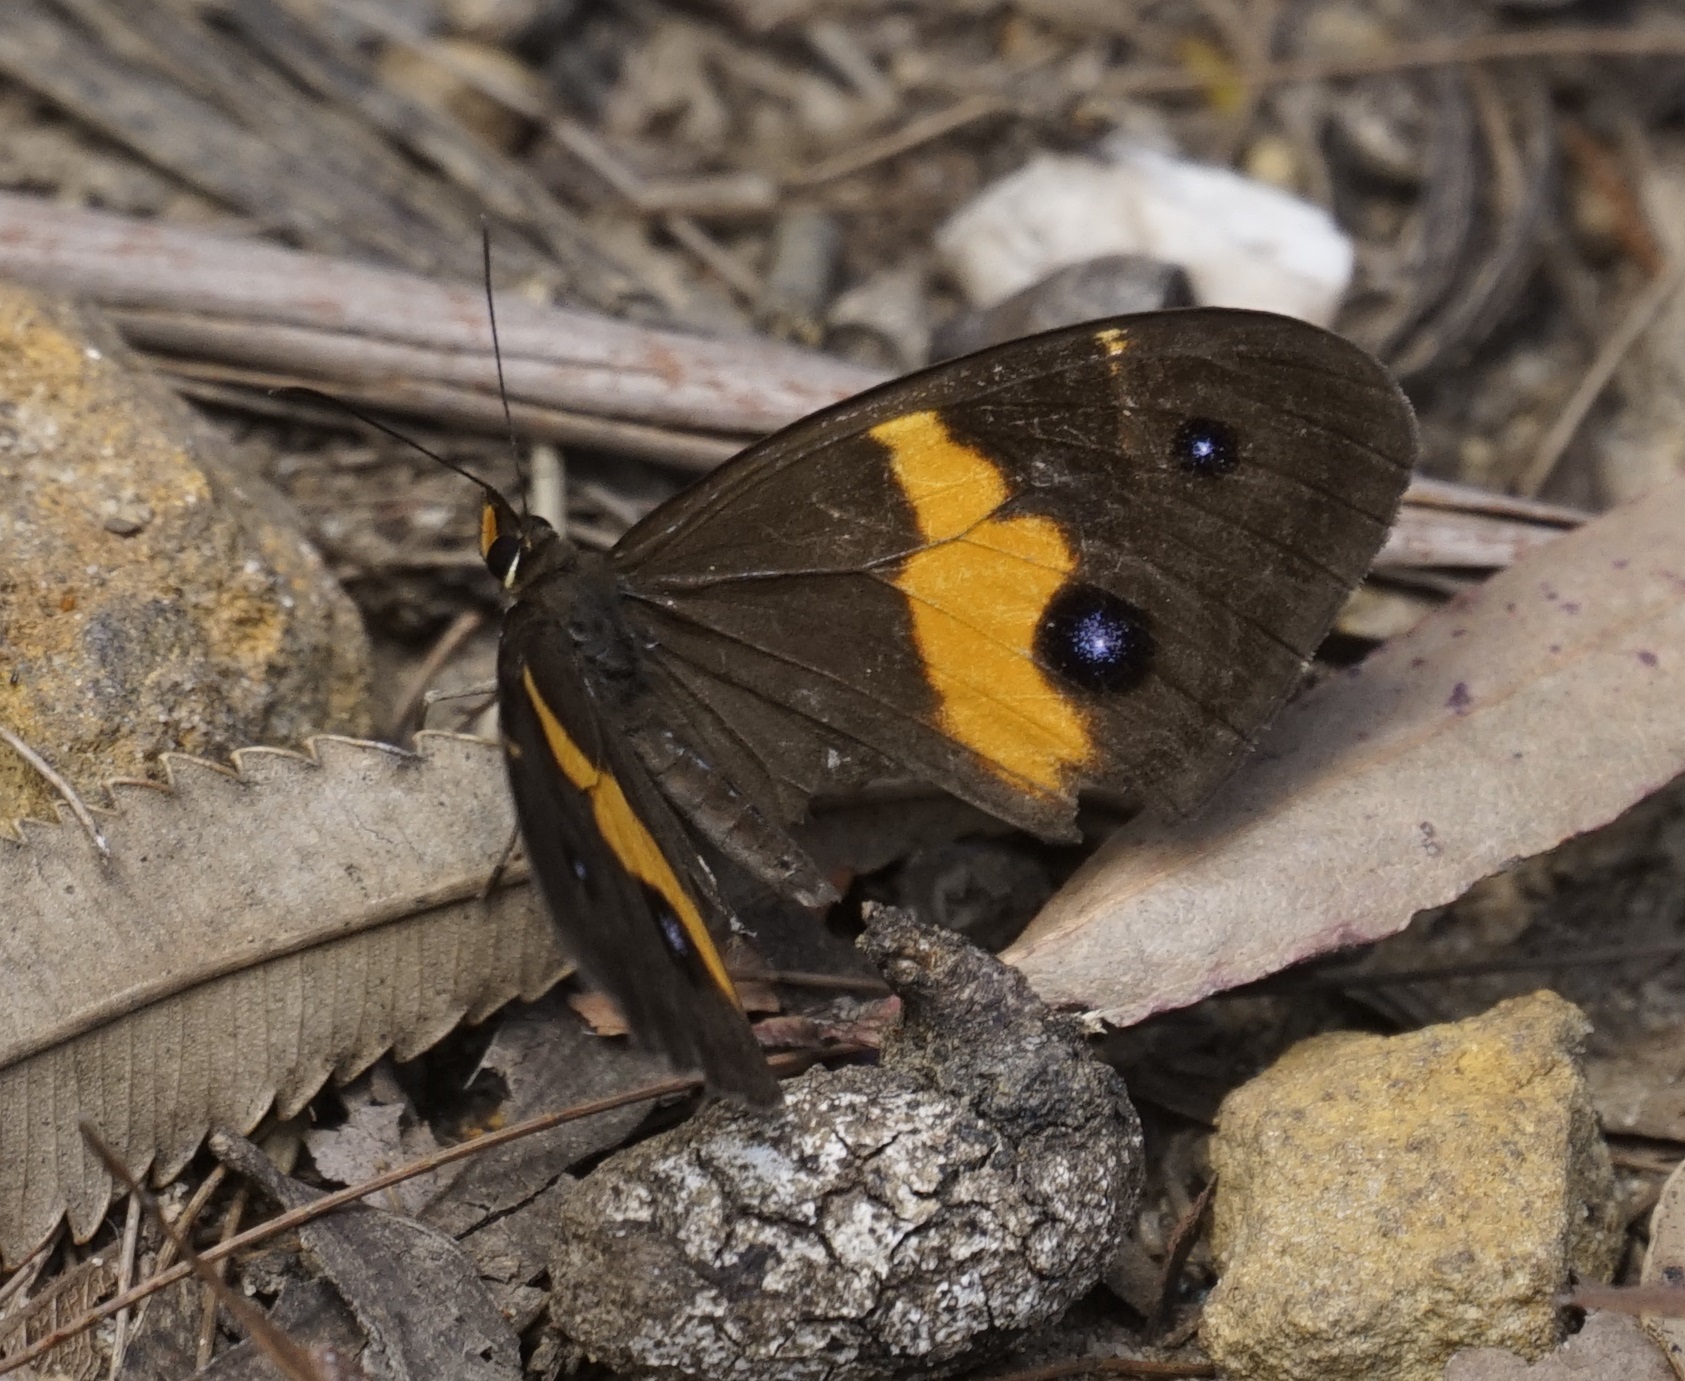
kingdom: Animalia
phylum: Arthropoda
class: Insecta
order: Lepidoptera
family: Nymphalidae
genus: Tisiphone
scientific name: Tisiphone abeona
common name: Swordgrass brown
